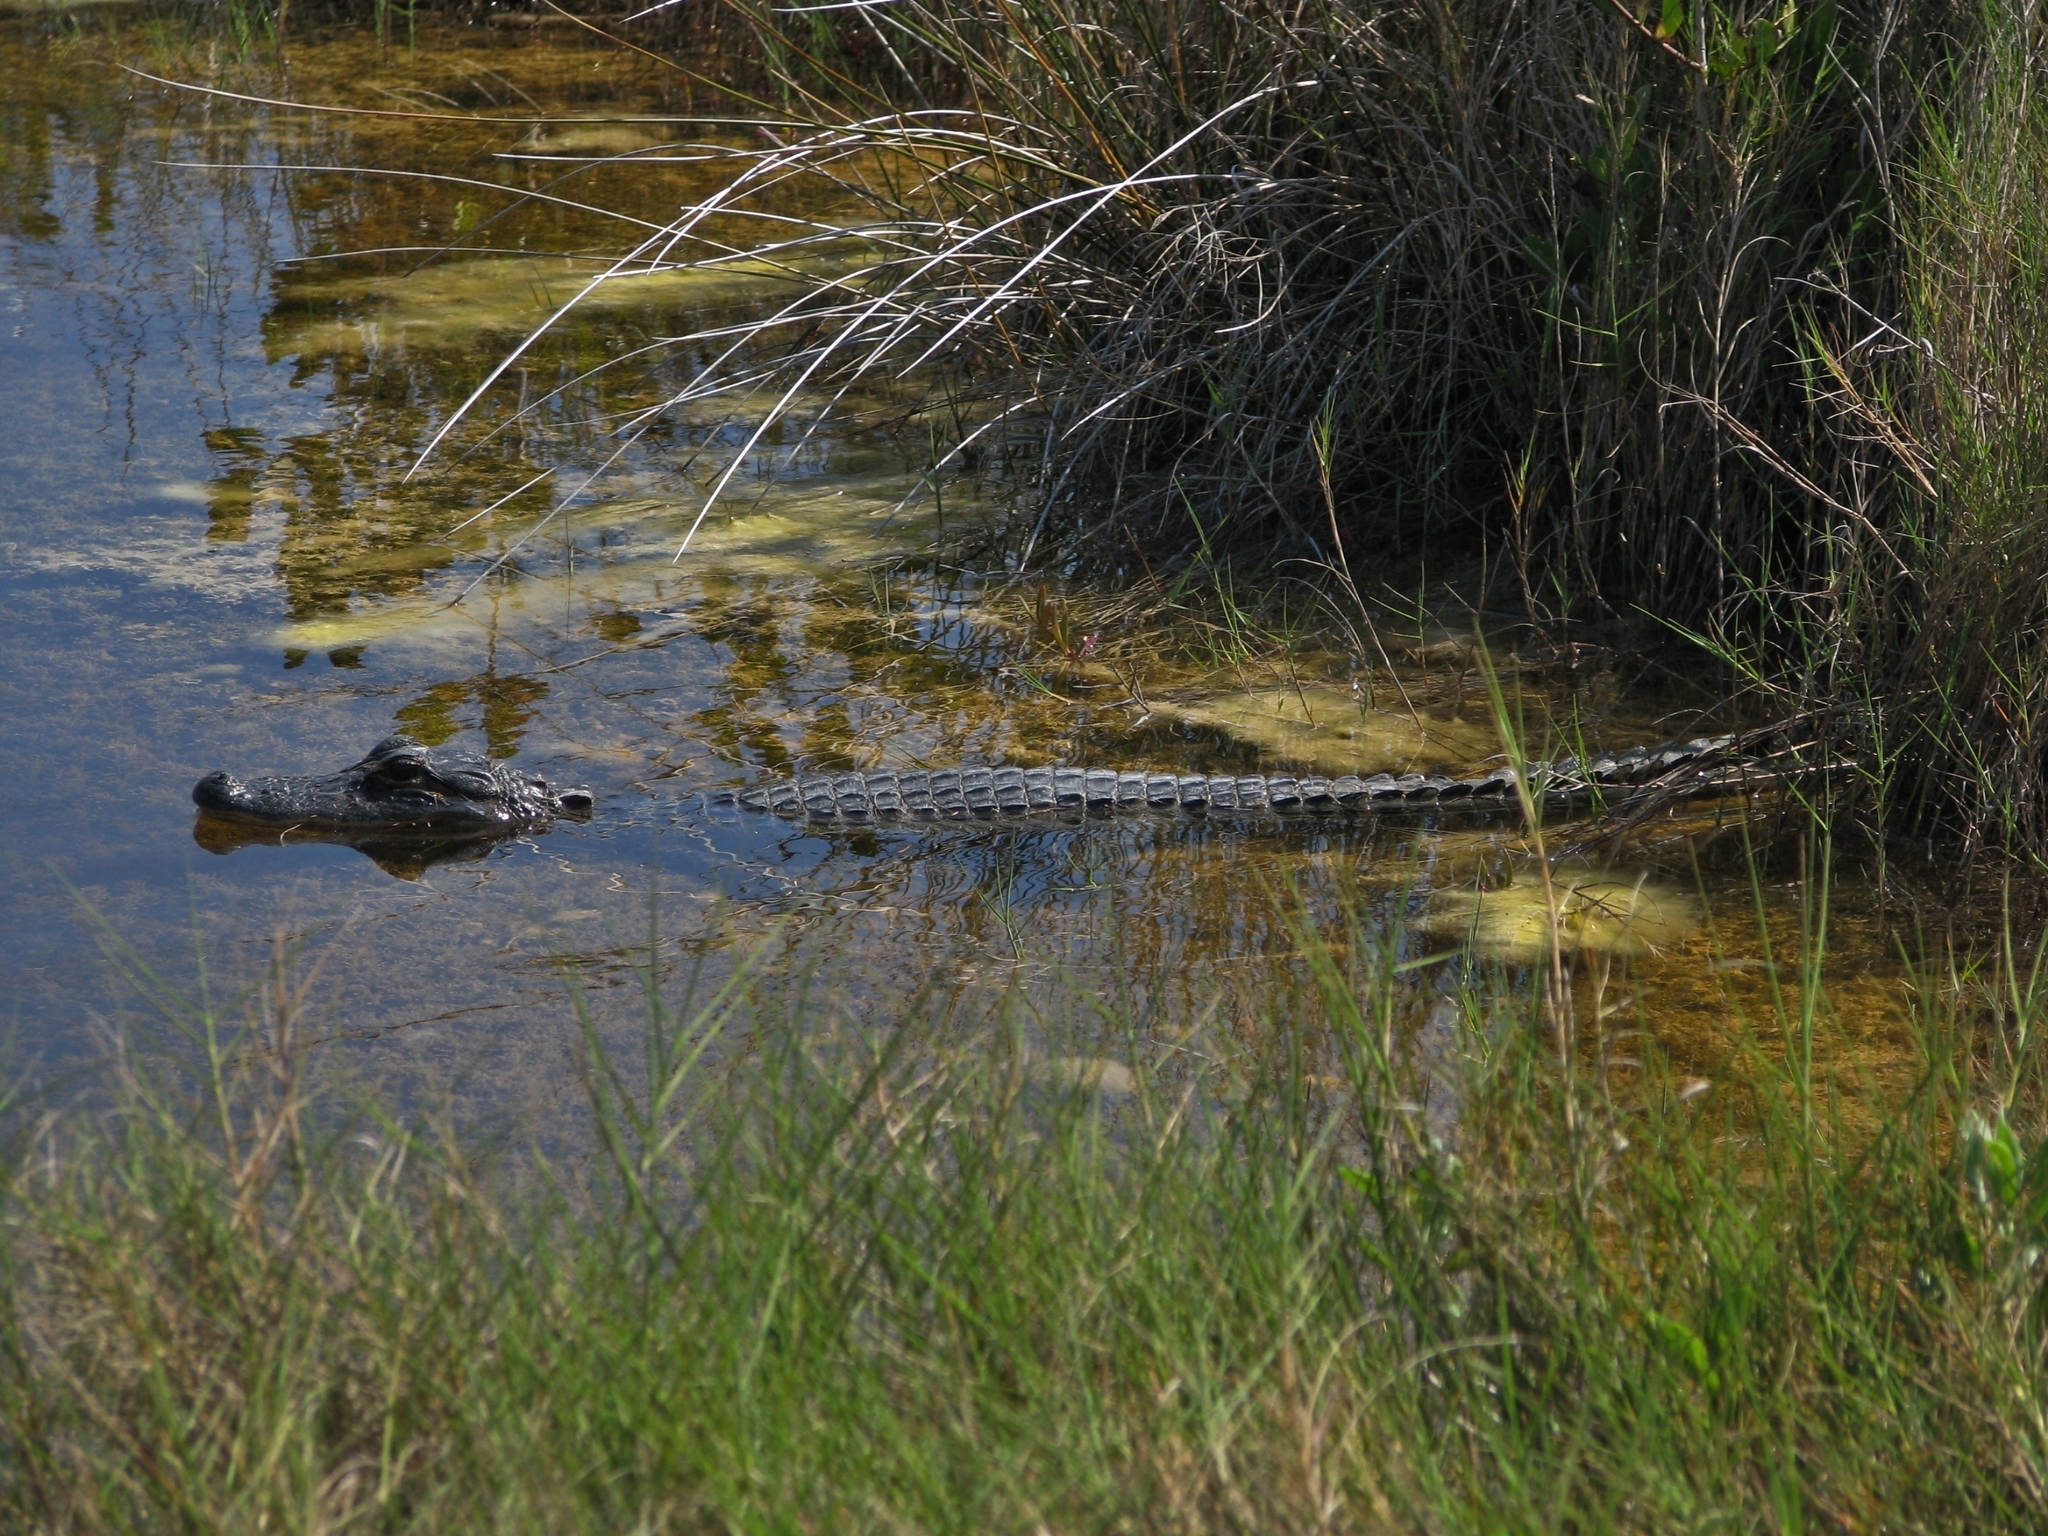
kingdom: Animalia
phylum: Chordata
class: Crocodylia
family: Alligatoridae
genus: Alligator
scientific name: Alligator mississippiensis
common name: American alligator
